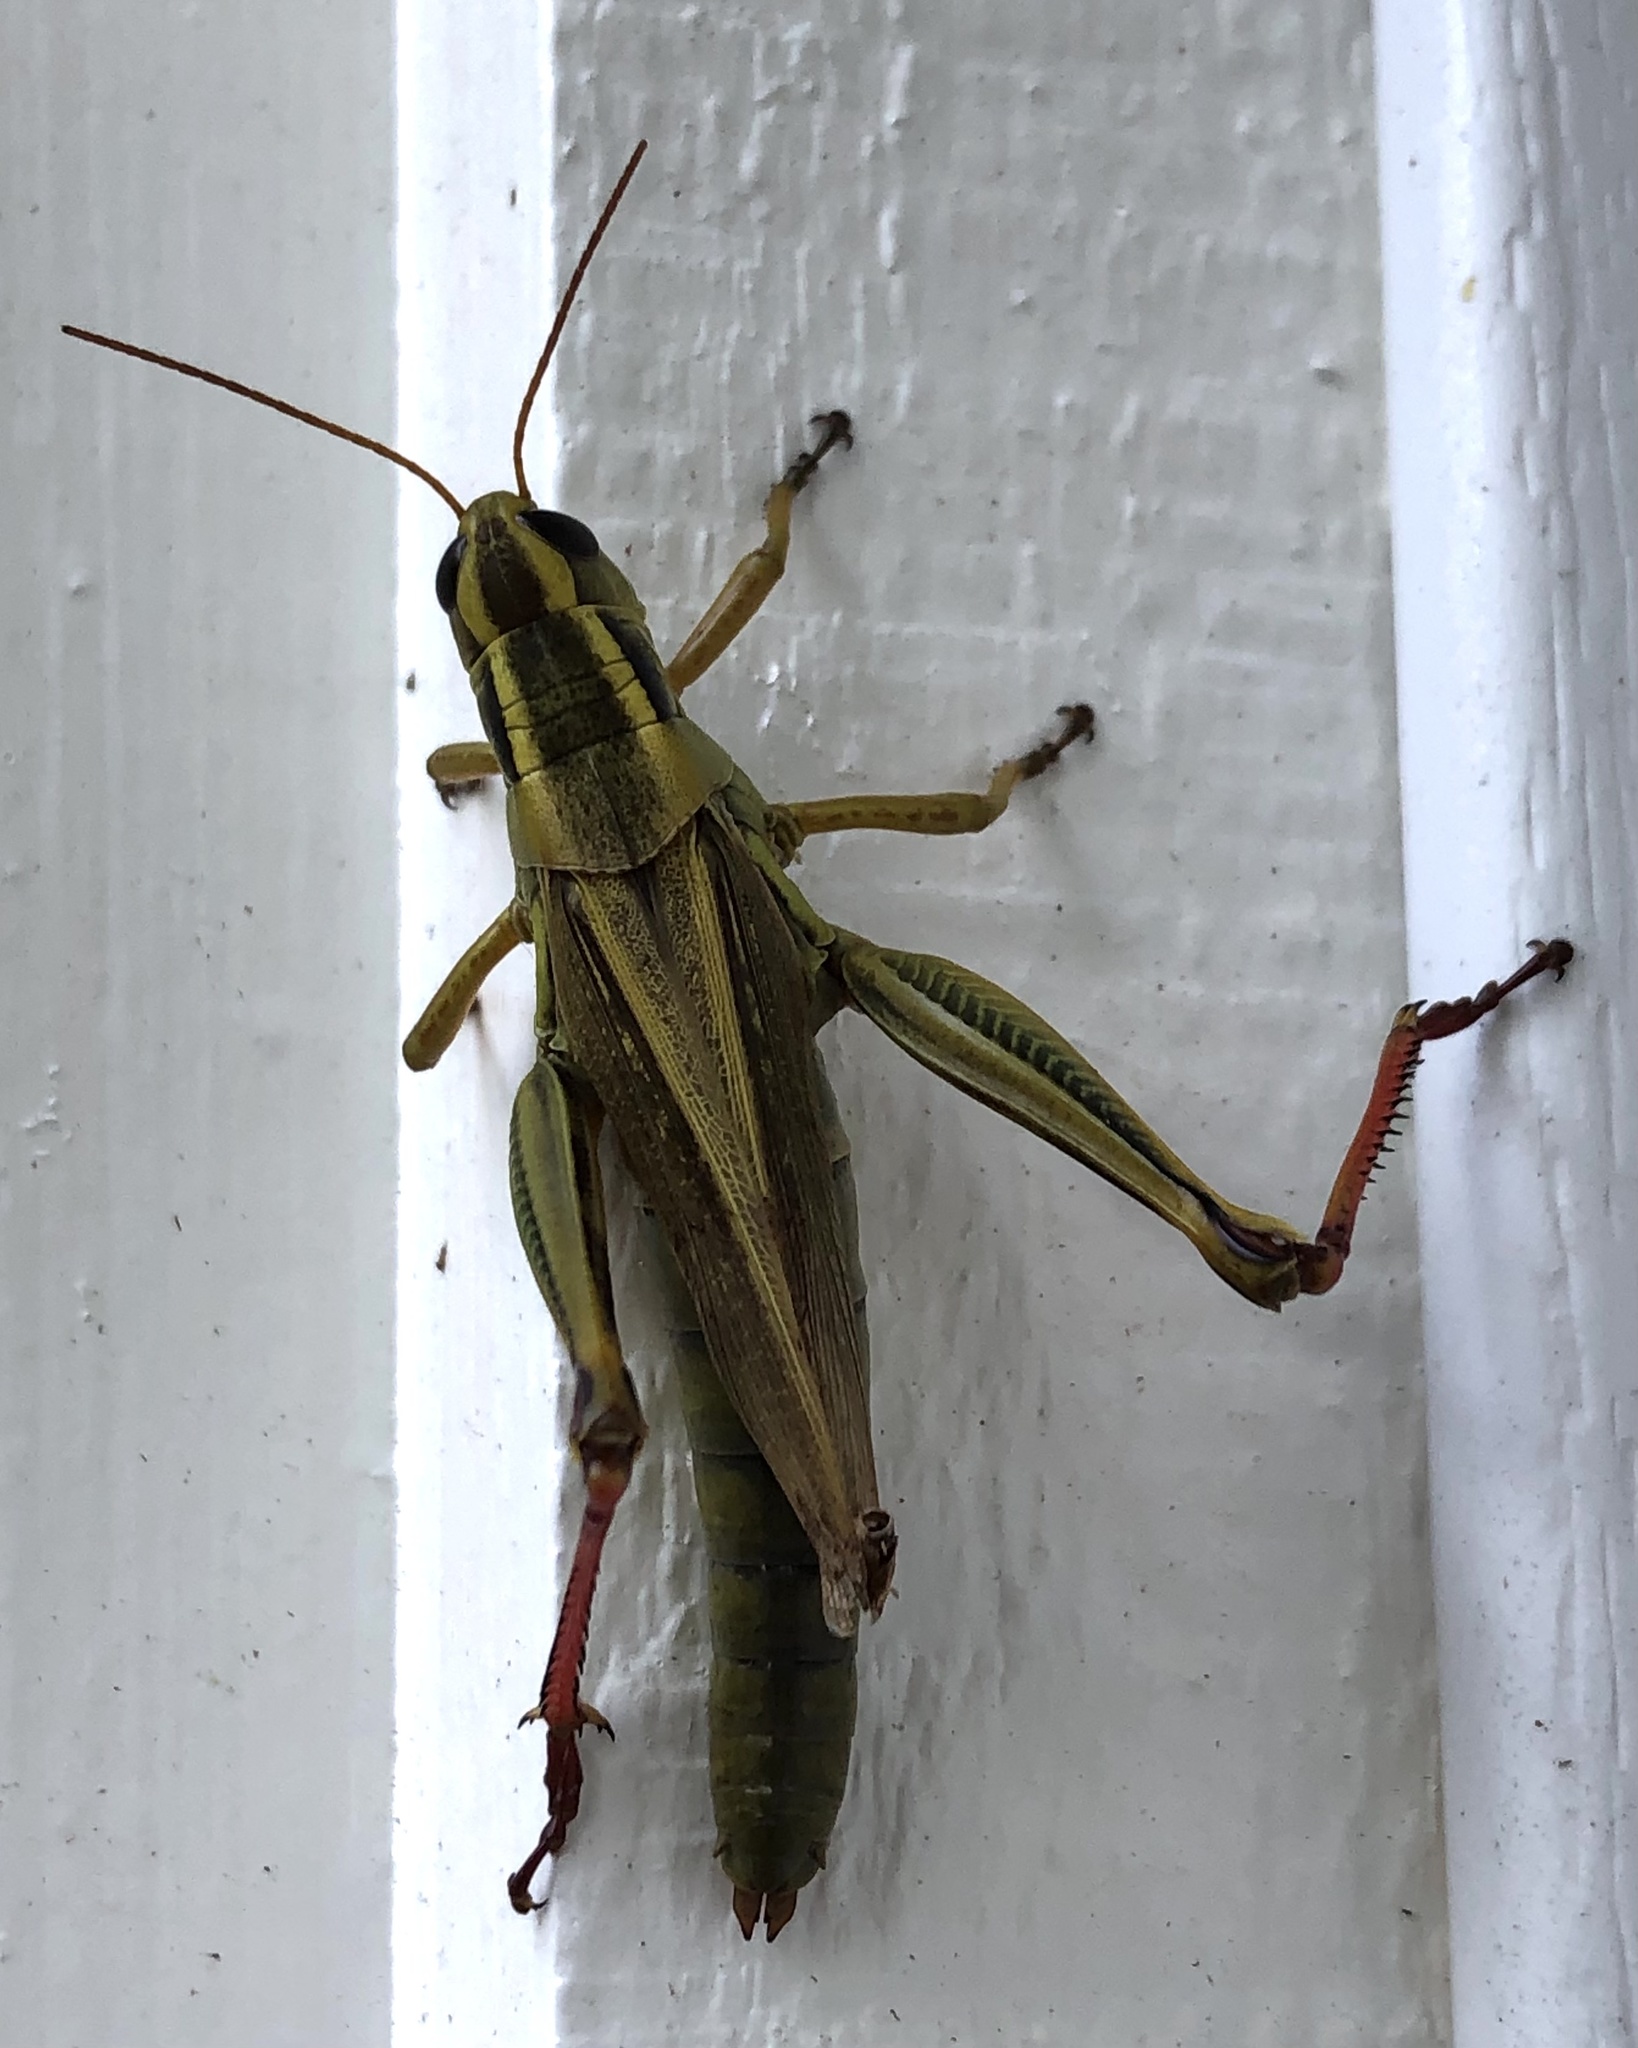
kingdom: Animalia
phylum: Arthropoda
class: Insecta
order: Orthoptera
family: Acrididae
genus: Melanoplus
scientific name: Melanoplus bivittatus
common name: Two-striped grasshopper
